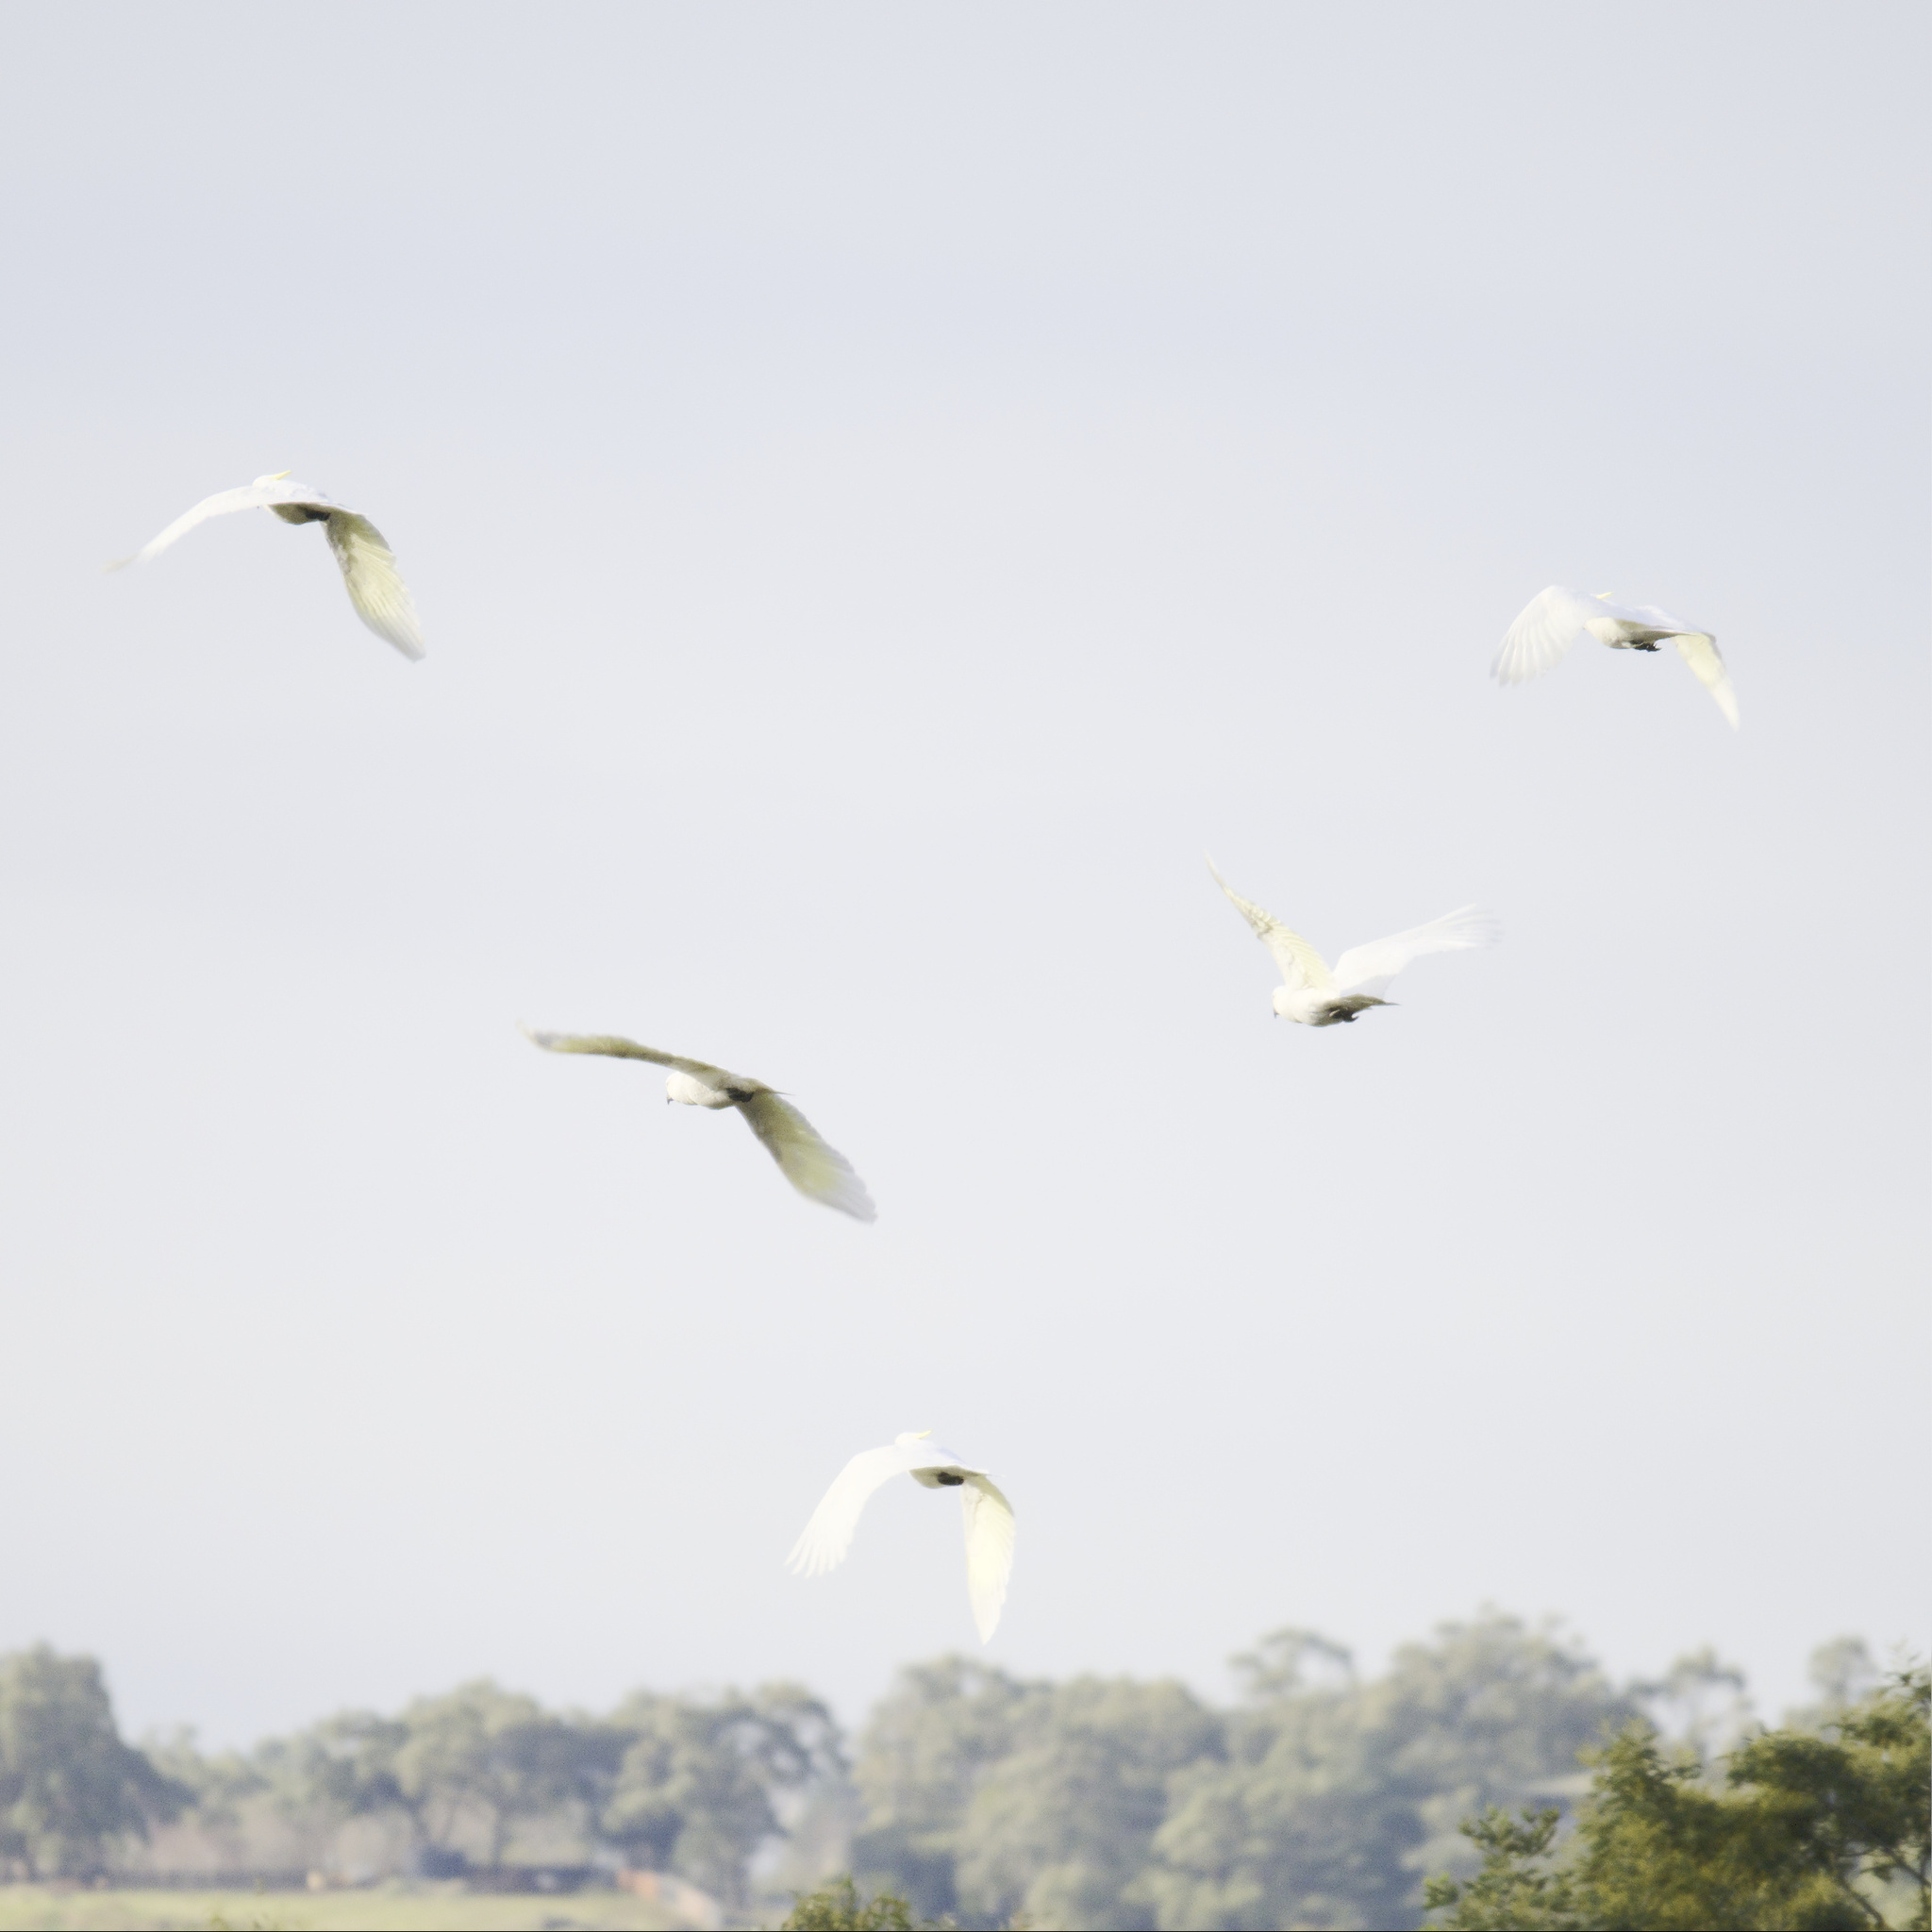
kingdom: Animalia
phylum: Chordata
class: Aves
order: Psittaciformes
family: Psittacidae
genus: Cacatua
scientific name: Cacatua galerita
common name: Sulphur-crested cockatoo
